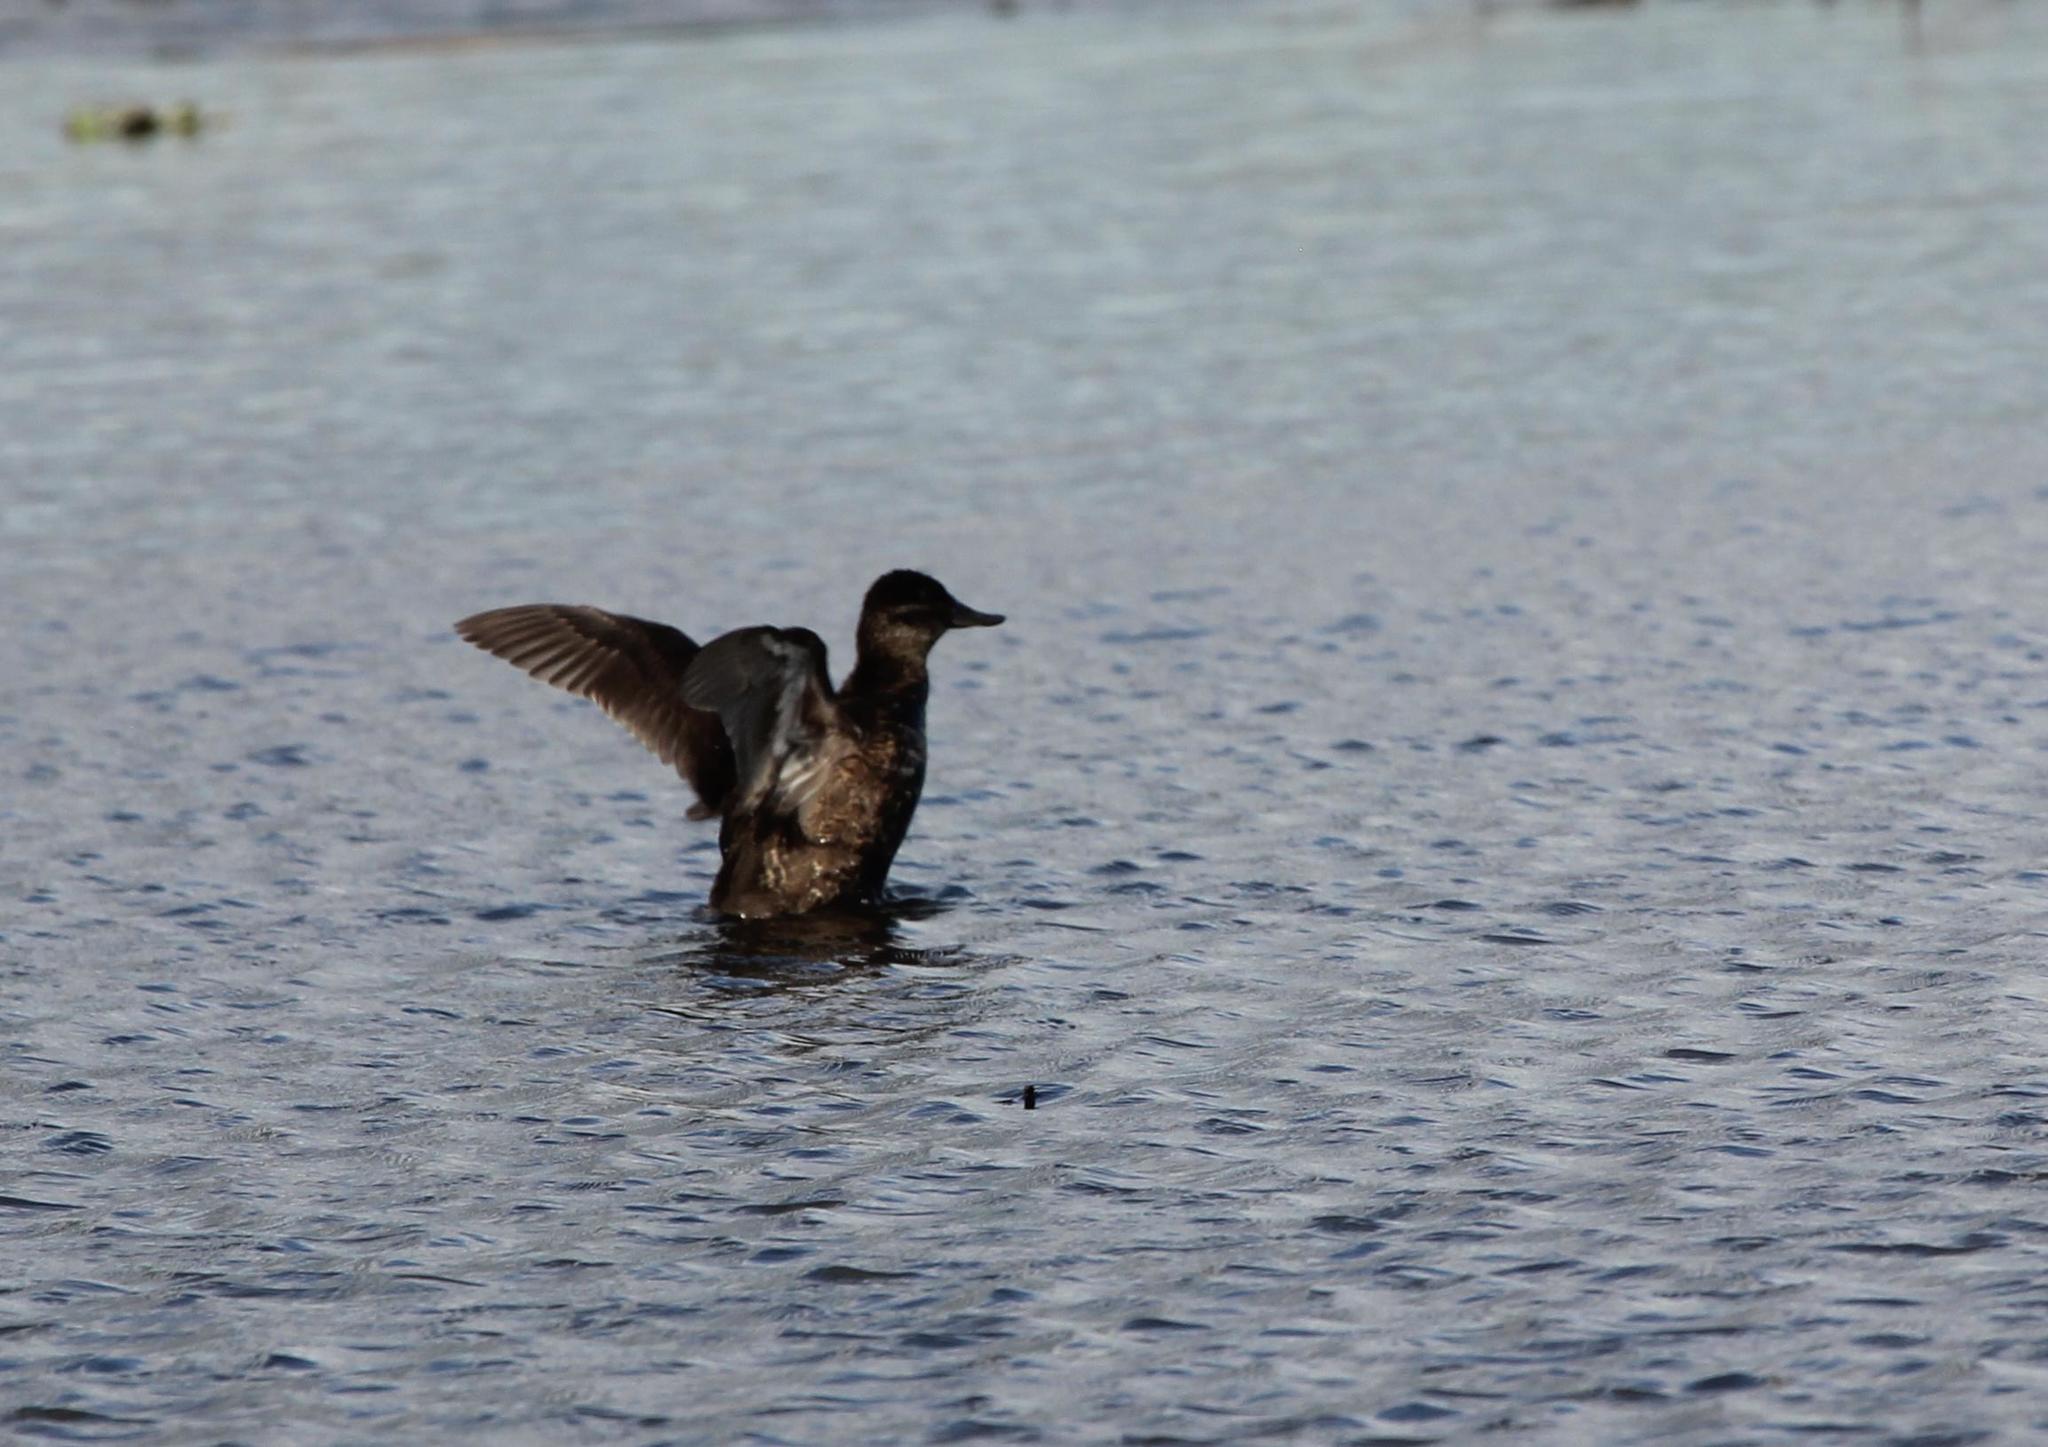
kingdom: Animalia
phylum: Chordata
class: Aves
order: Anseriformes
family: Anatidae
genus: Oxyura
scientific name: Oxyura jamaicensis
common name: Ruddy duck
